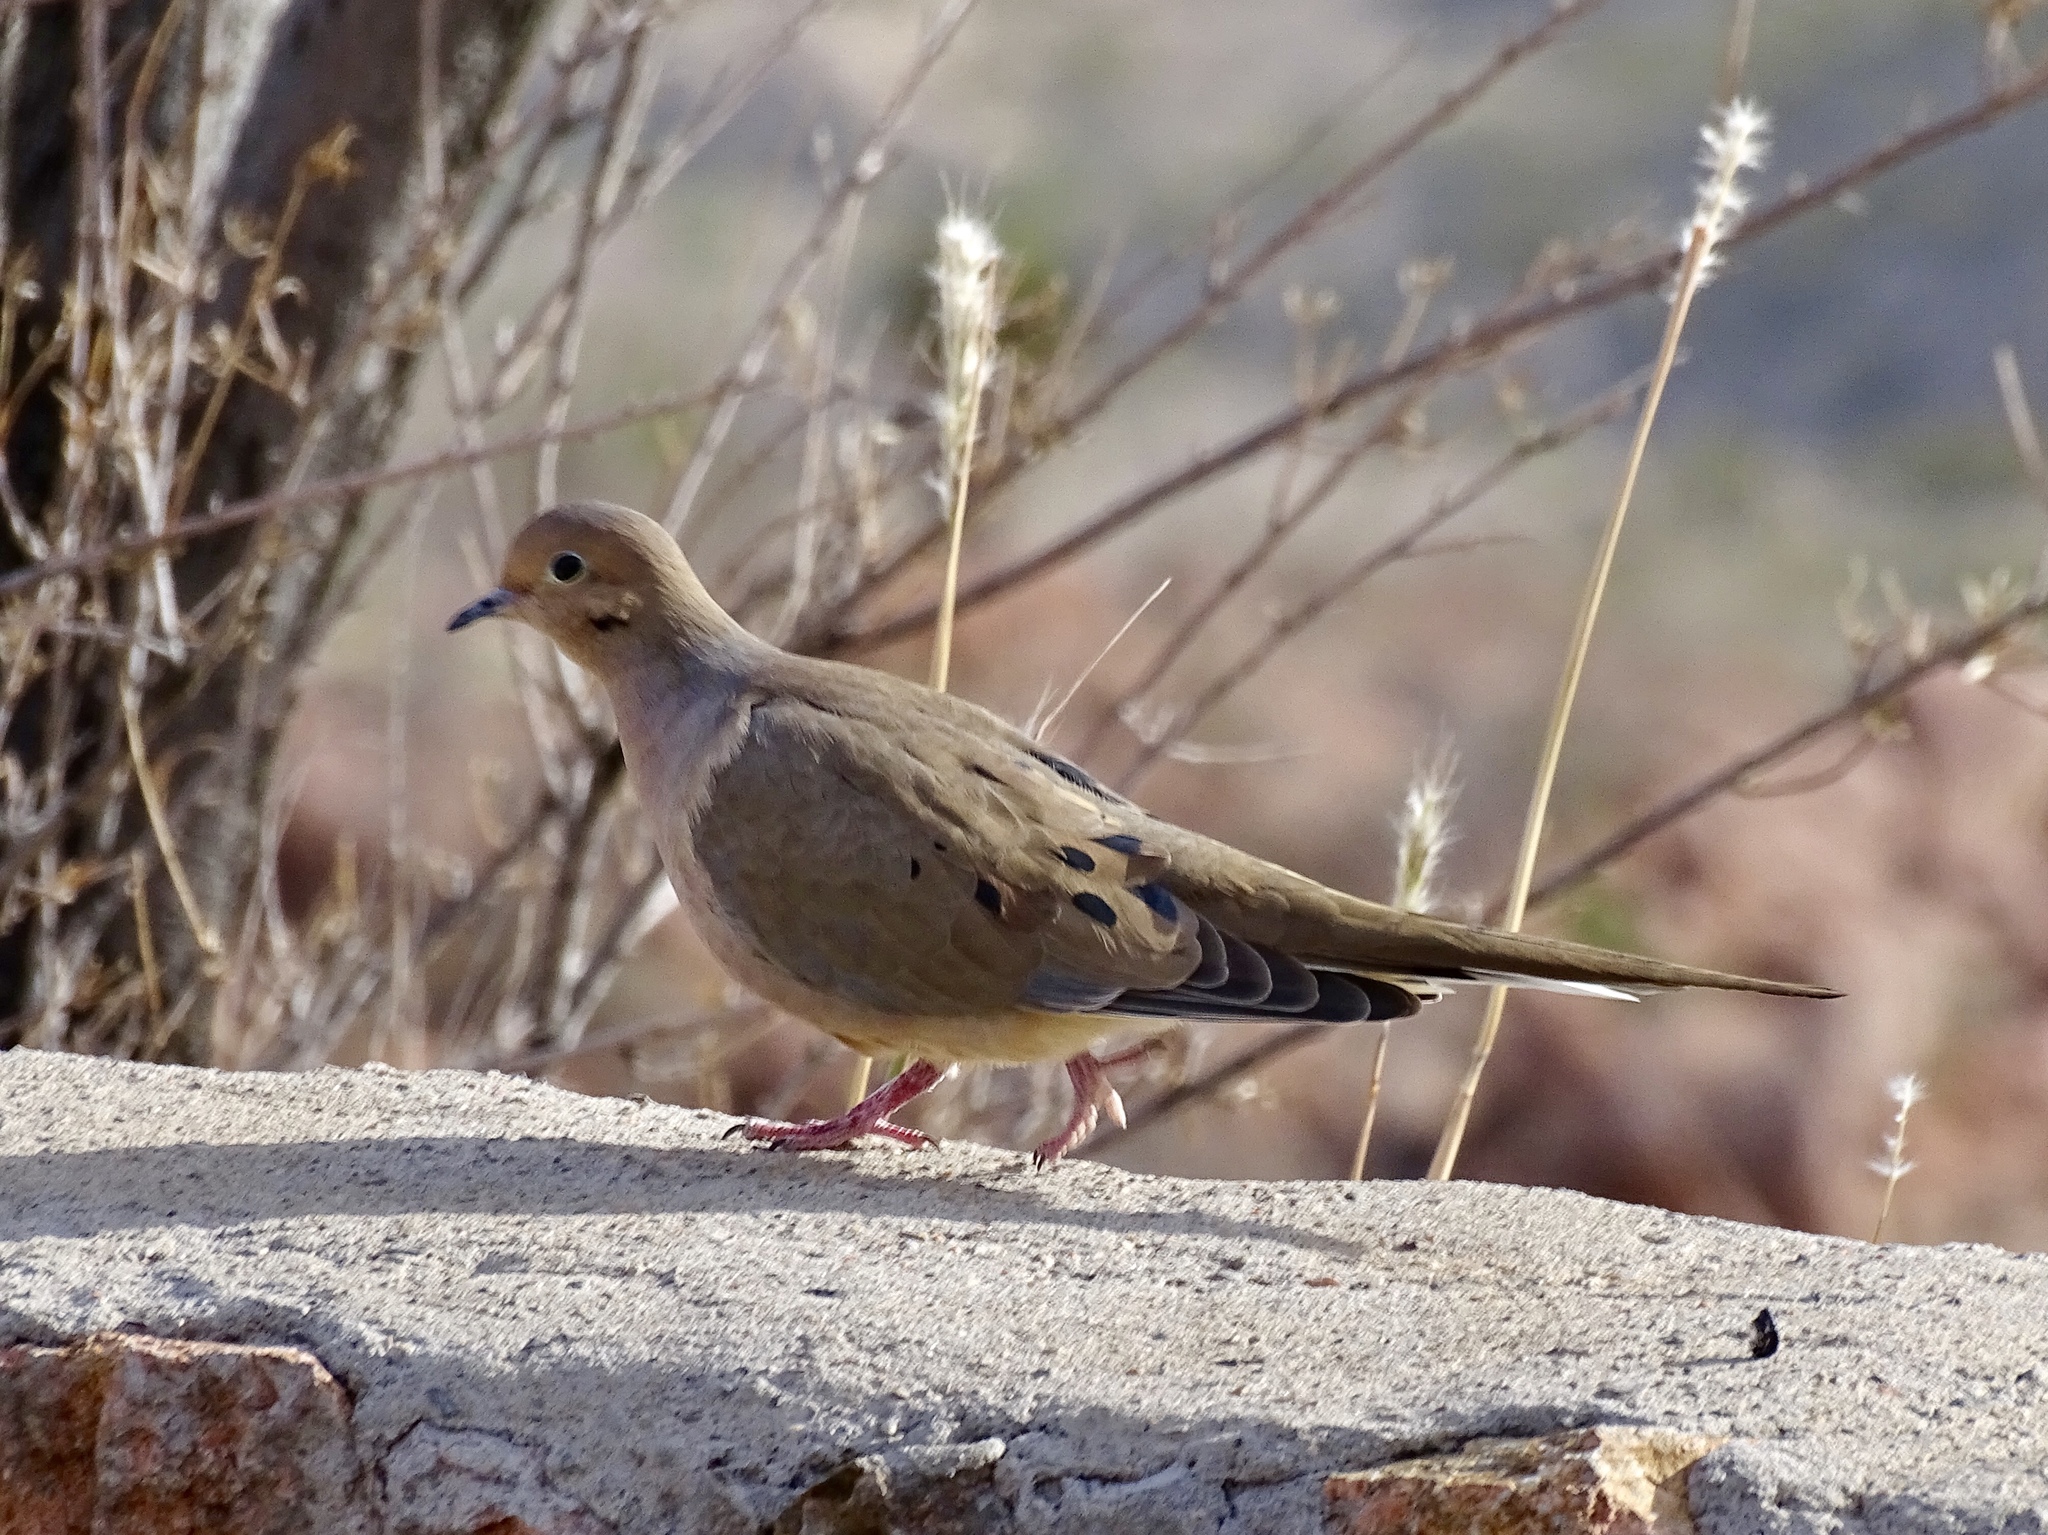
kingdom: Animalia
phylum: Chordata
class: Aves
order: Columbiformes
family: Columbidae
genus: Zenaida
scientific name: Zenaida macroura
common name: Mourning dove
